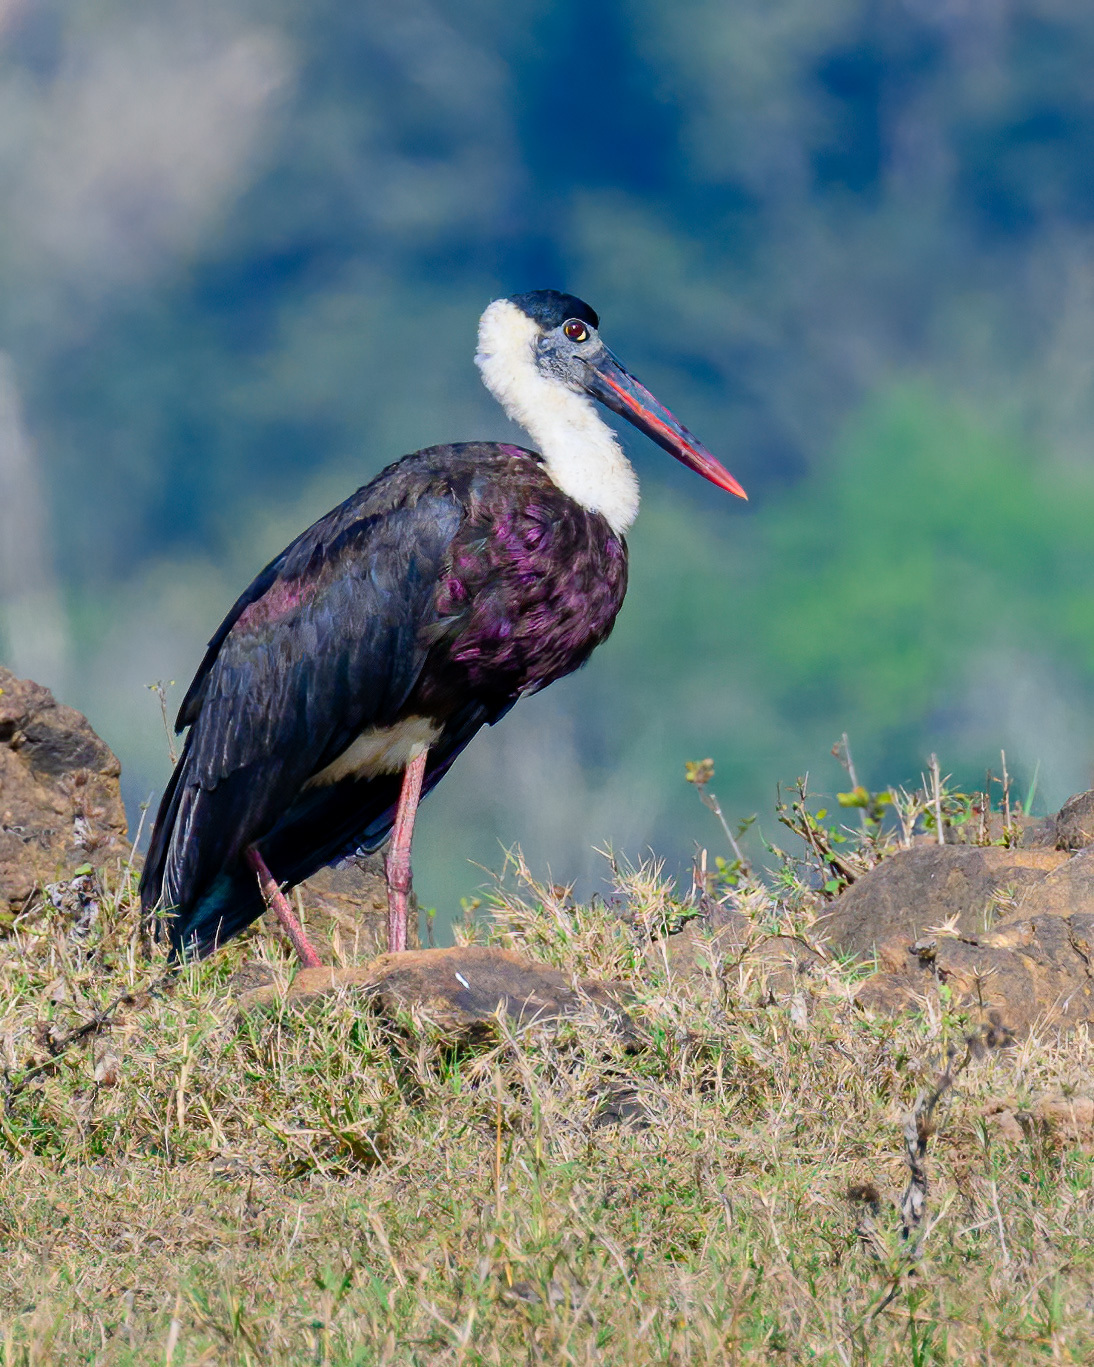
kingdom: Animalia
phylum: Chordata
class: Aves
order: Ciconiiformes
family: Ciconiidae
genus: Ciconia
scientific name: Ciconia episcopus
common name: Woolly-necked stork
